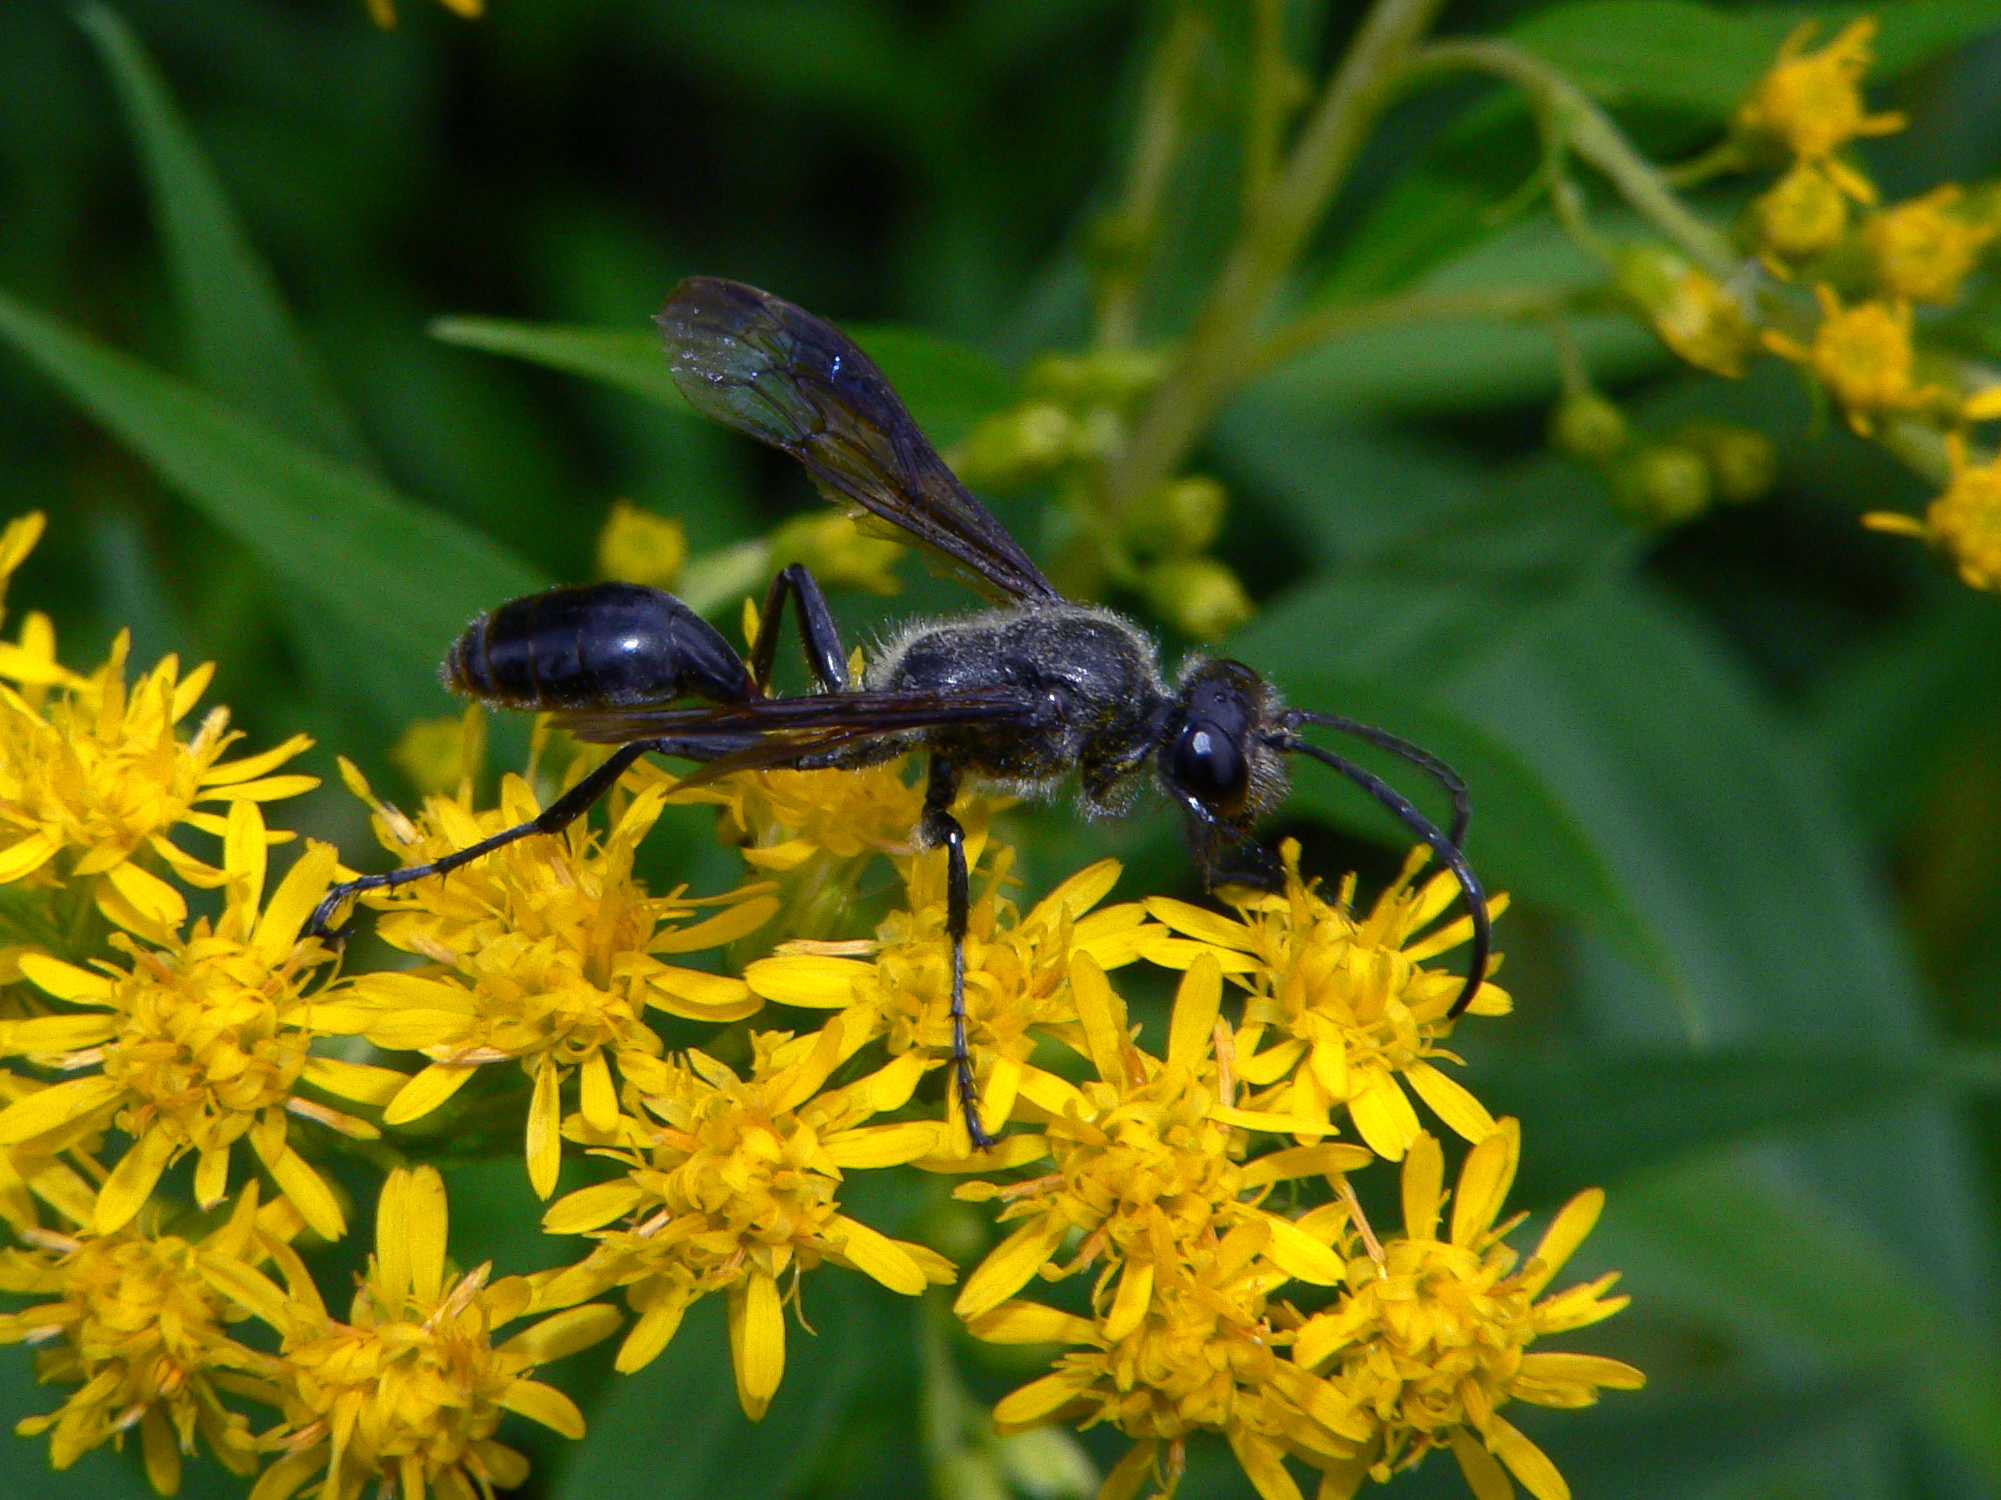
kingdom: Animalia
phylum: Arthropoda
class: Insecta
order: Hymenoptera
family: Sphecidae
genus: Isodontia
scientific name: Isodontia mexicana
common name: Mud dauber
